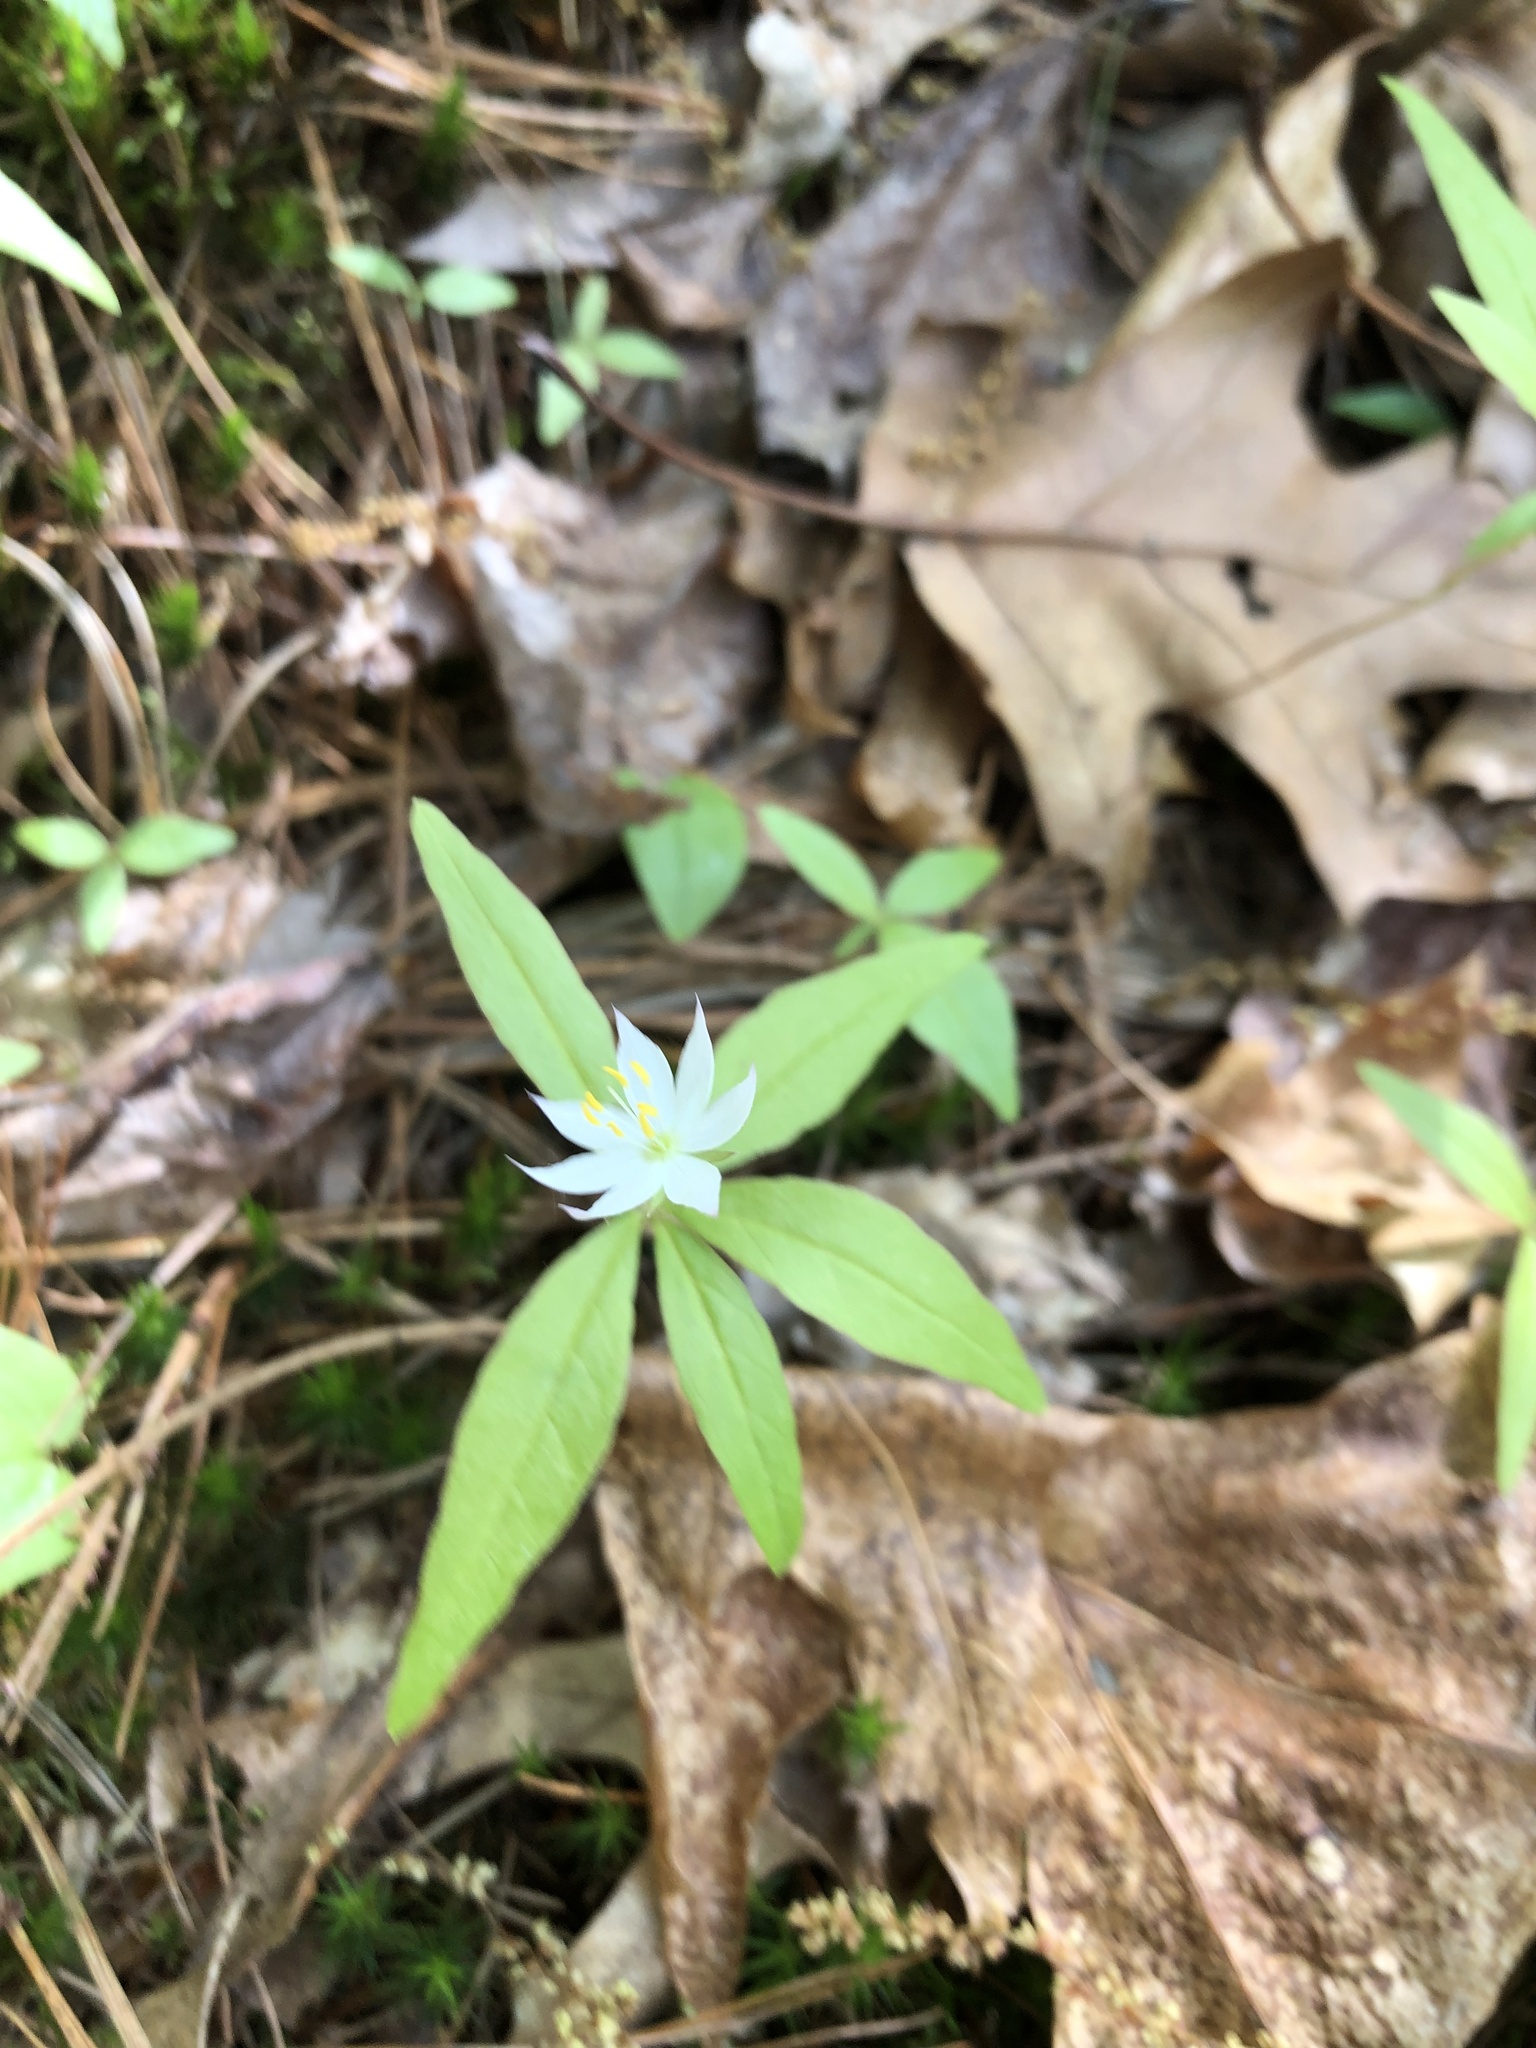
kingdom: Plantae
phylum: Tracheophyta
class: Magnoliopsida
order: Ericales
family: Primulaceae
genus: Lysimachia
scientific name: Lysimachia borealis
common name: American starflower
